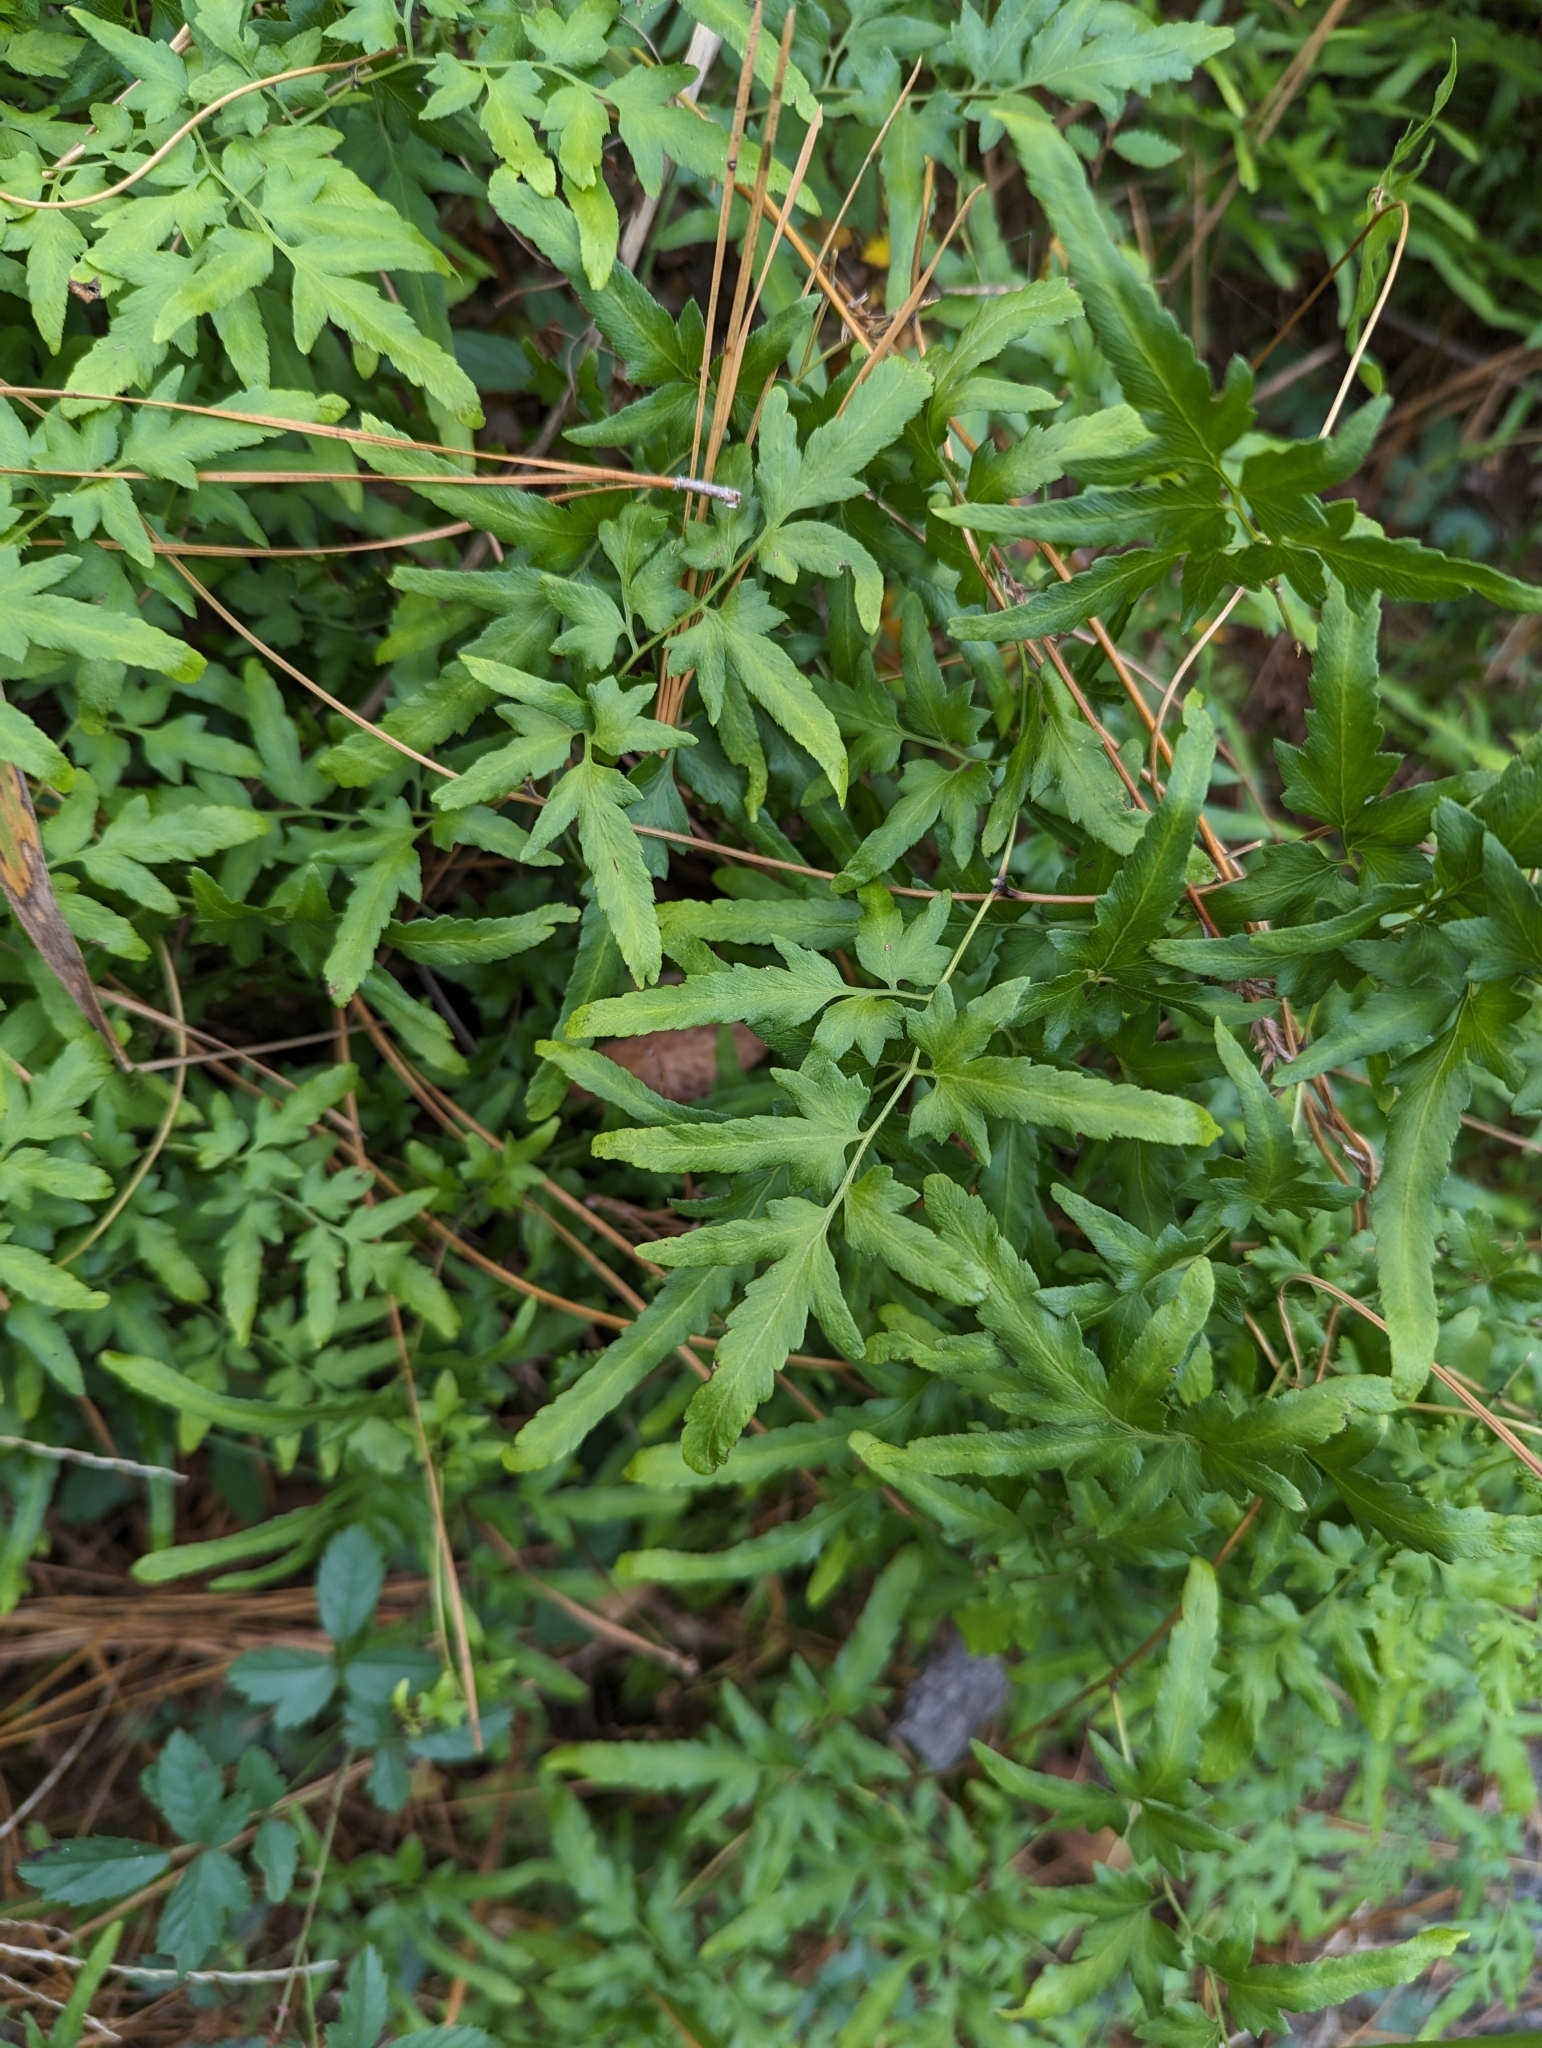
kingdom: Plantae
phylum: Tracheophyta
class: Polypodiopsida
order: Schizaeales
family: Lygodiaceae
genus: Lygodium
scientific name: Lygodium japonicum
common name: Japanese climbing fern
